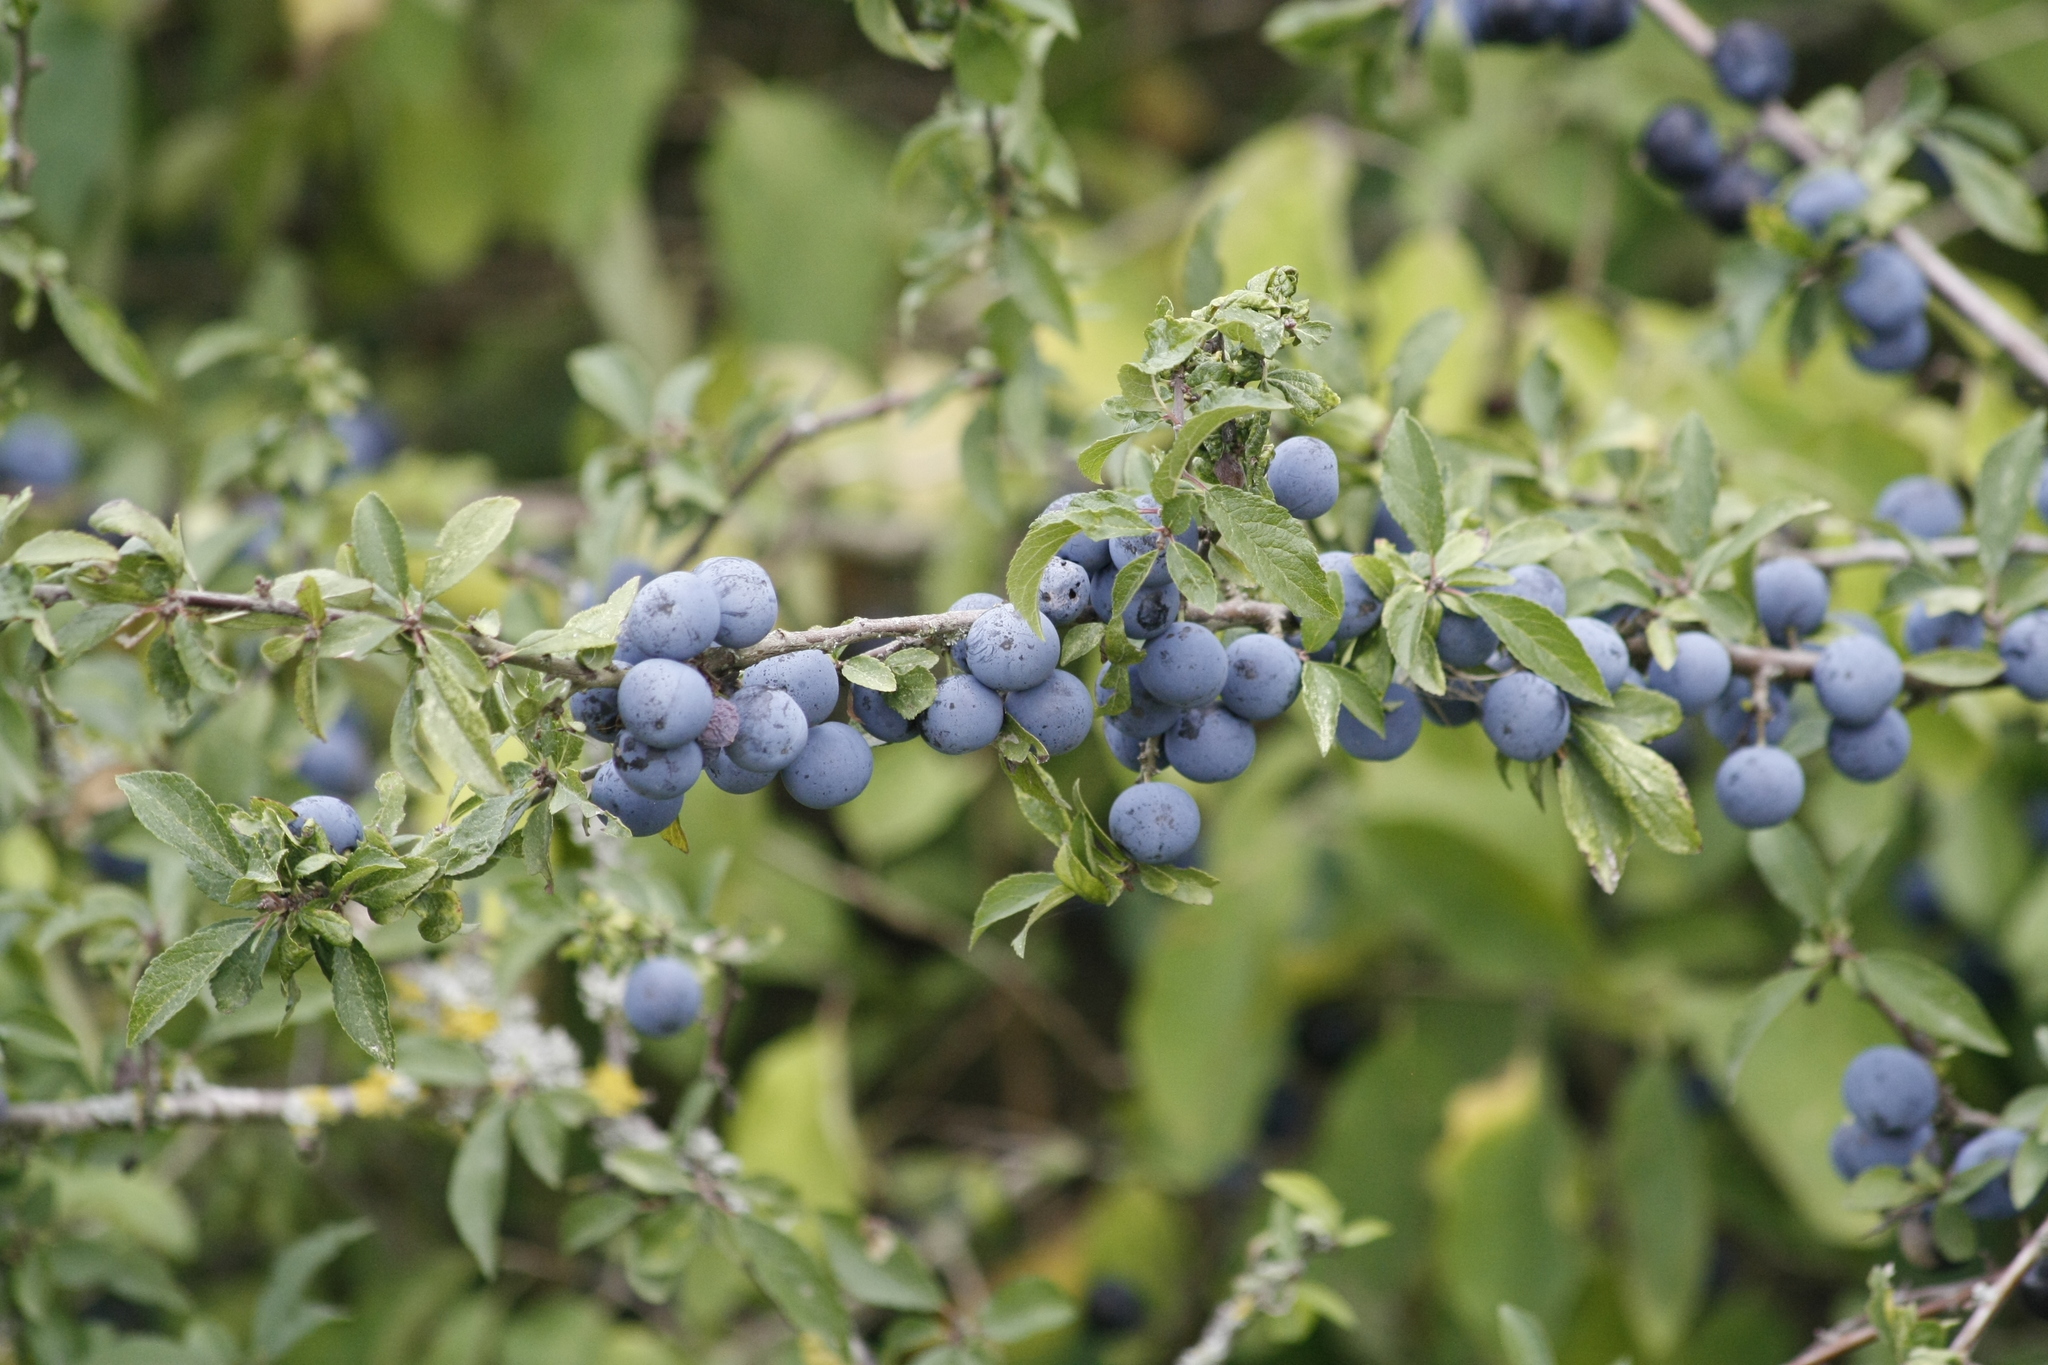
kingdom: Plantae
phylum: Tracheophyta
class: Magnoliopsida
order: Rosales
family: Rosaceae
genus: Prunus
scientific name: Prunus spinosa
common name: Blackthorn
